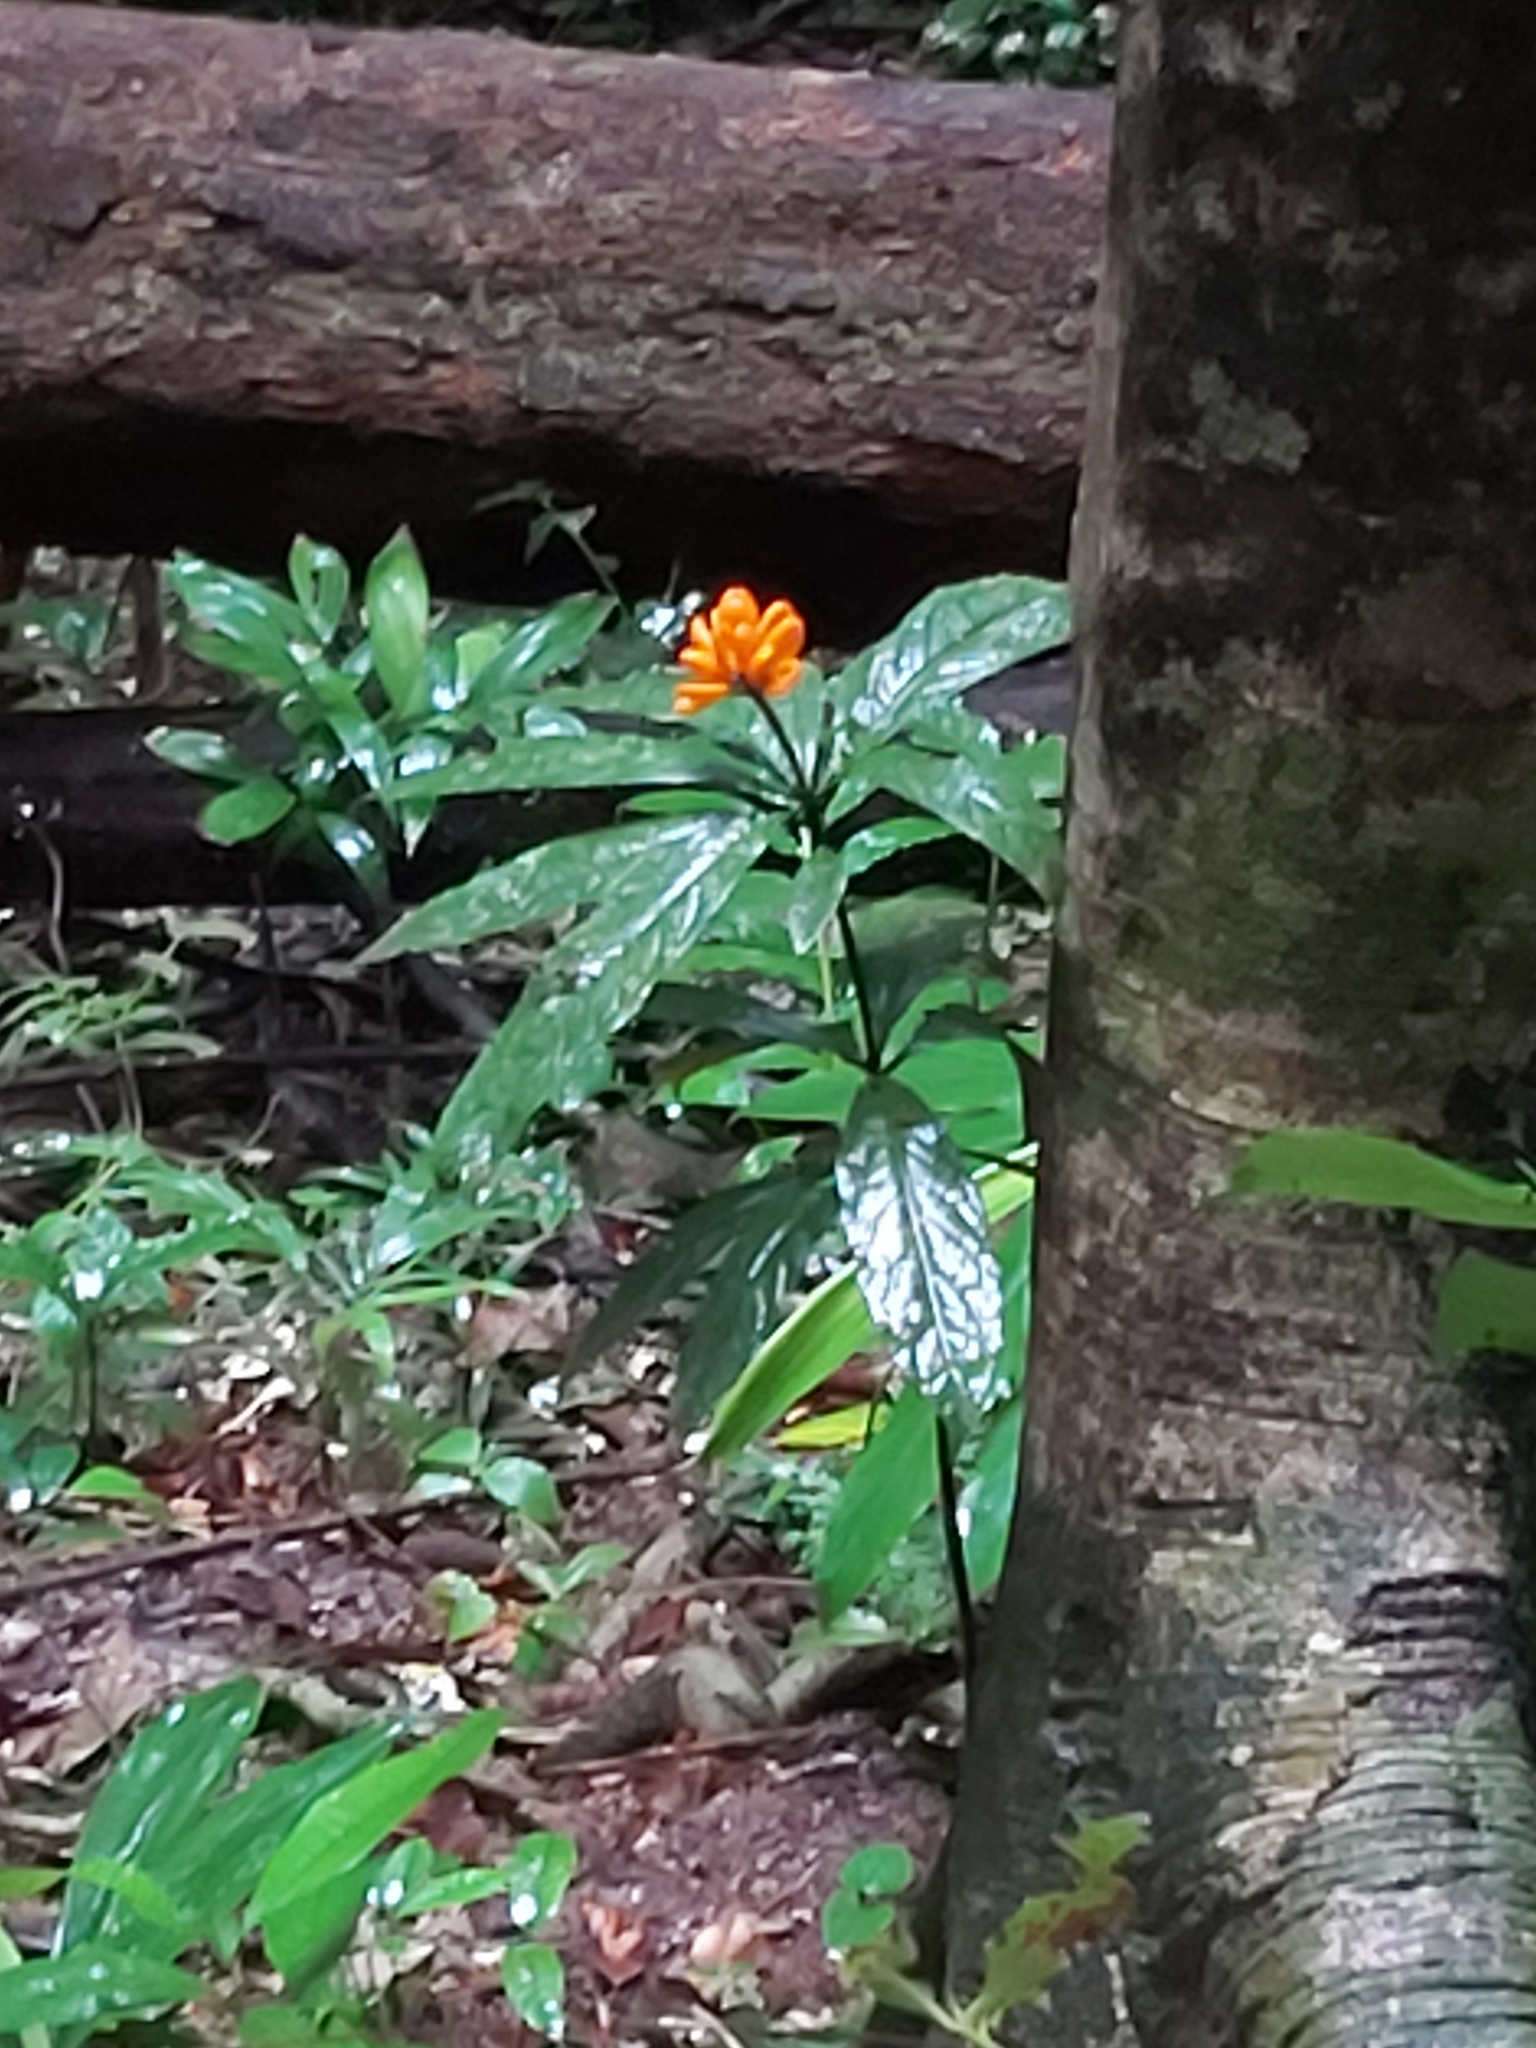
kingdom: Plantae
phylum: Tracheophyta
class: Magnoliopsida
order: Apiales
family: Pittosporaceae
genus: Pittosporum
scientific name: Pittosporum rubiginosum
